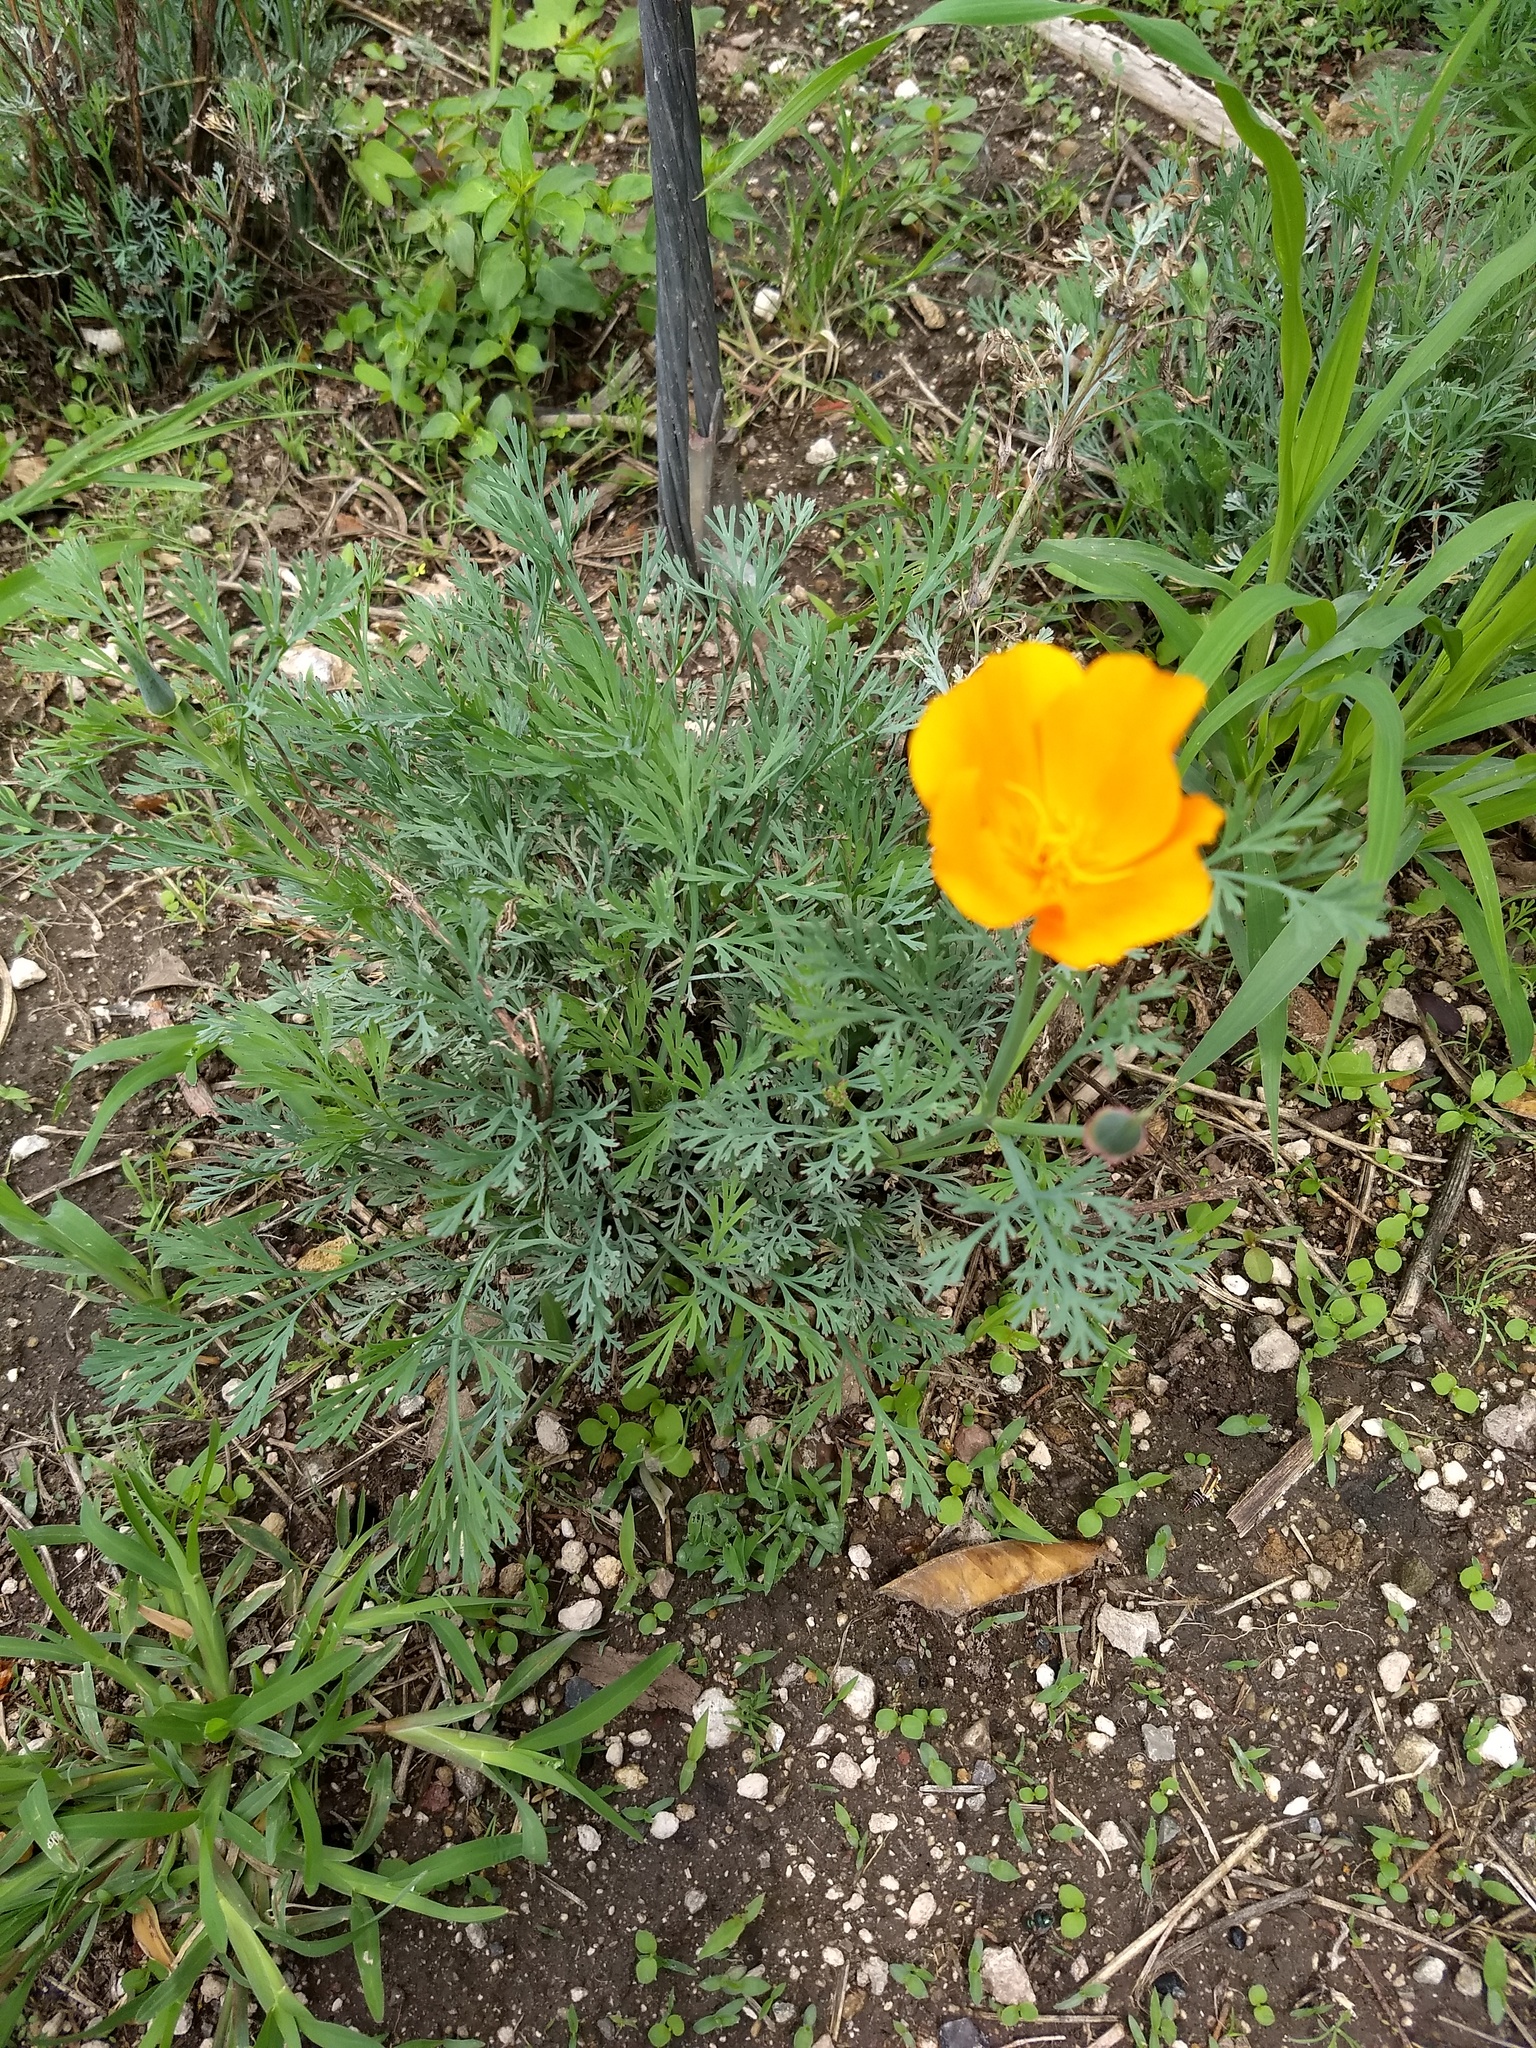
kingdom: Plantae
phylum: Tracheophyta
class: Magnoliopsida
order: Asterales
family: Asteraceae
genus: Cosmos
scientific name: Cosmos sulphureus
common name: Sulphur cosmos
